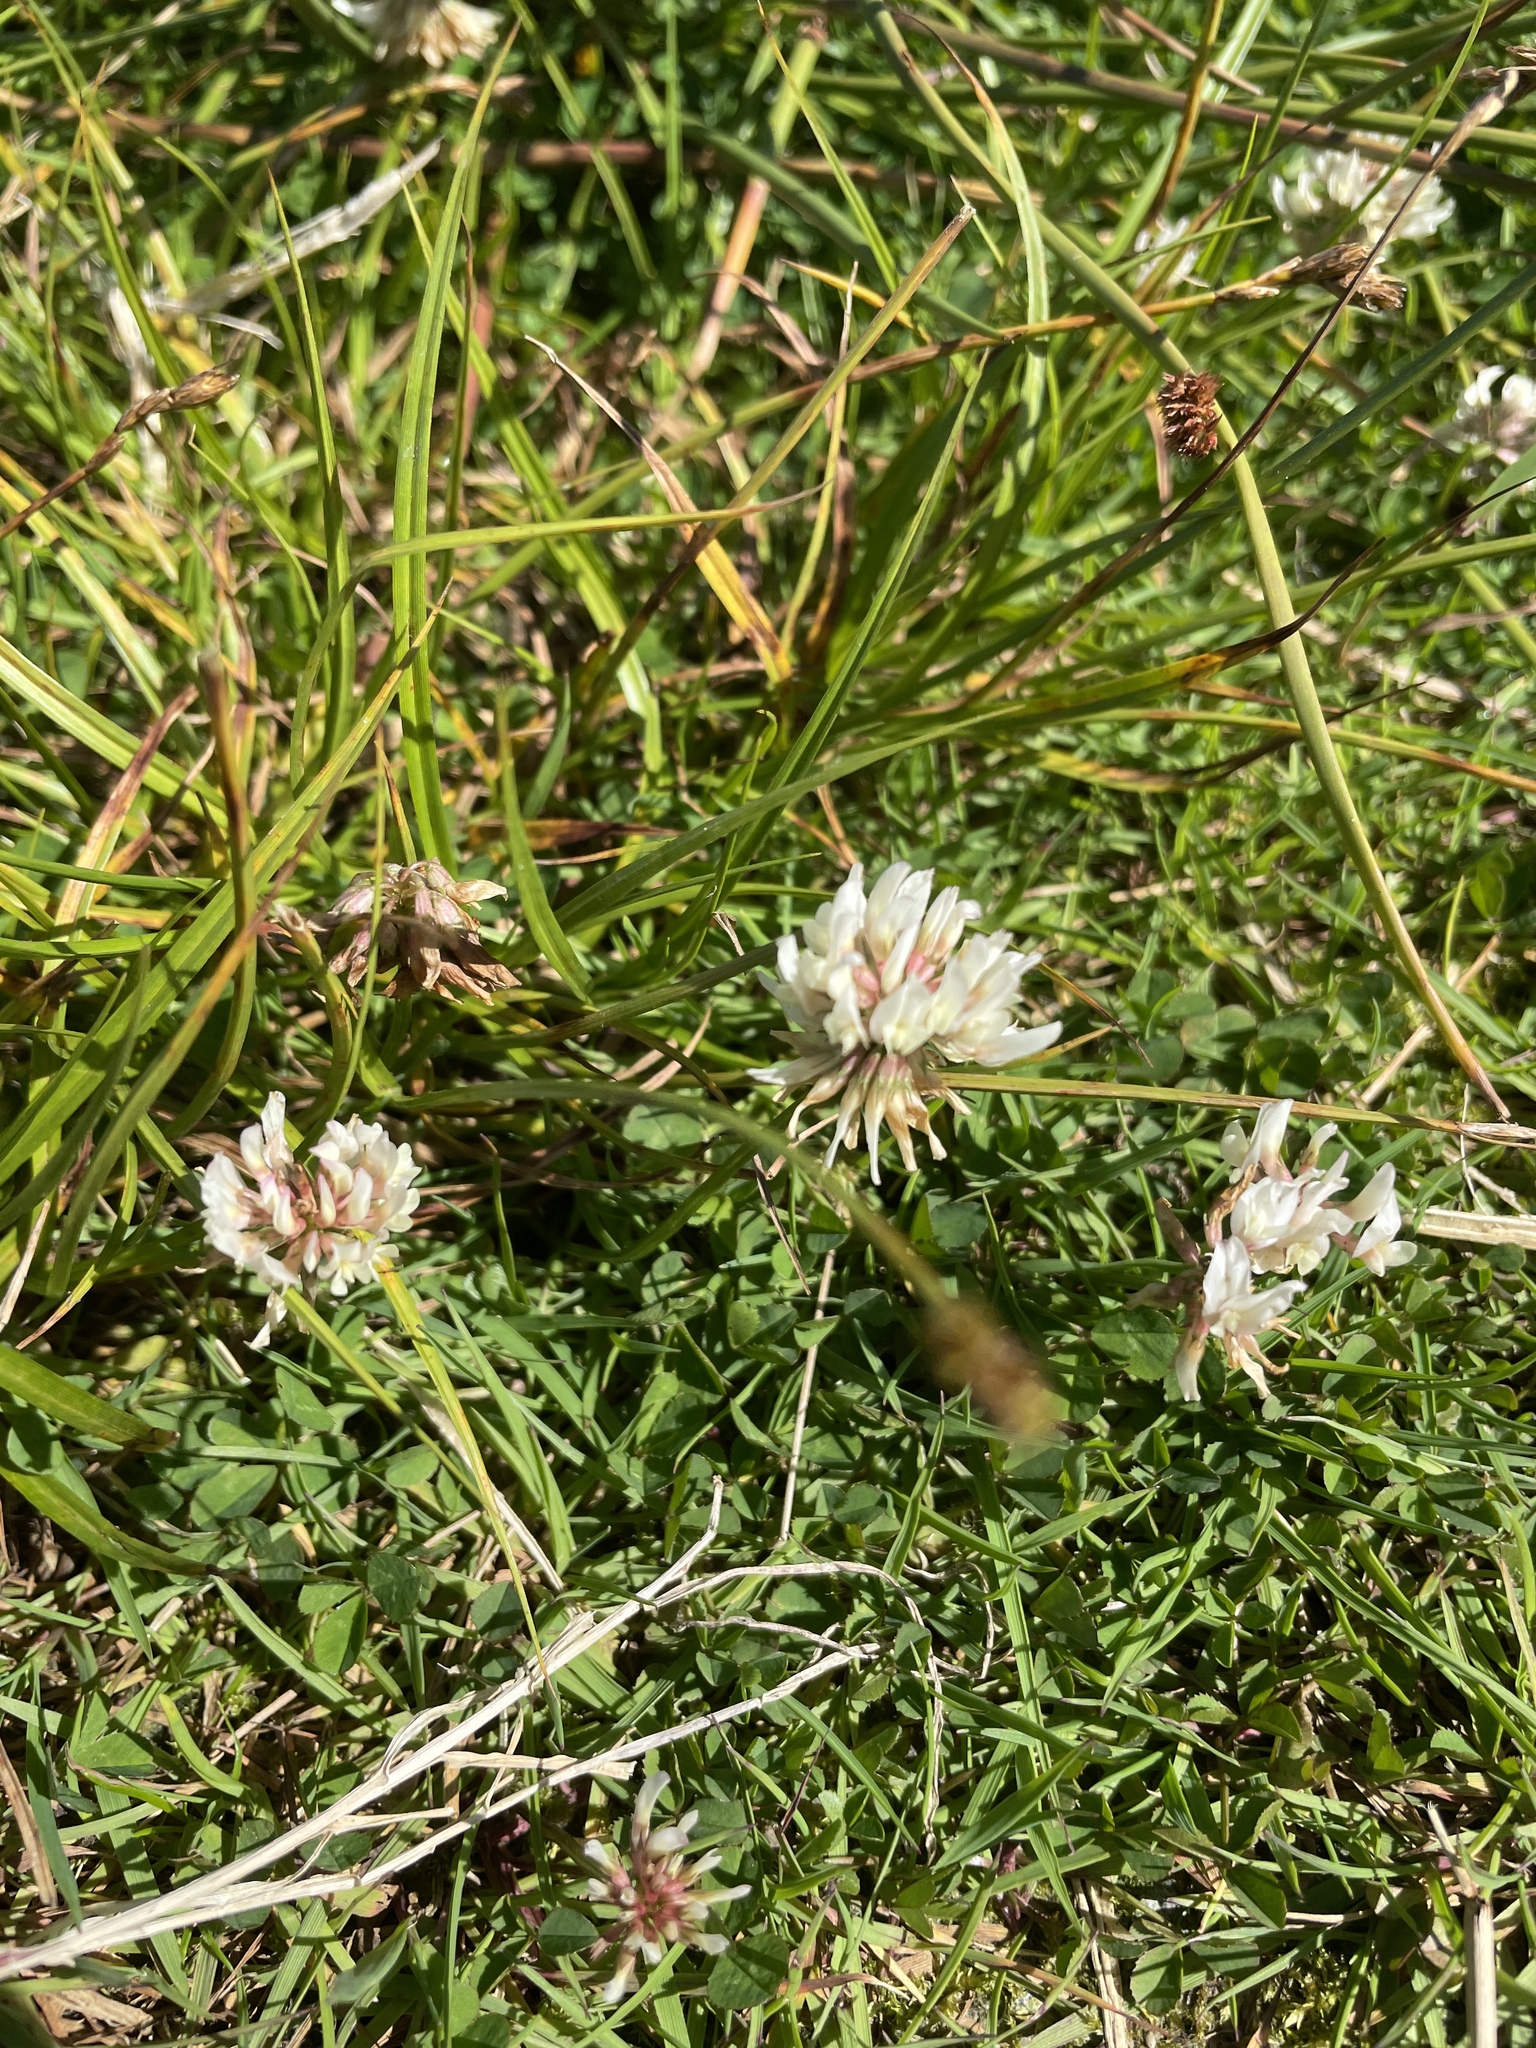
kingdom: Plantae
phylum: Tracheophyta
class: Magnoliopsida
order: Fabales
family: Fabaceae
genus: Trifolium
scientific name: Trifolium repens
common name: White clover
